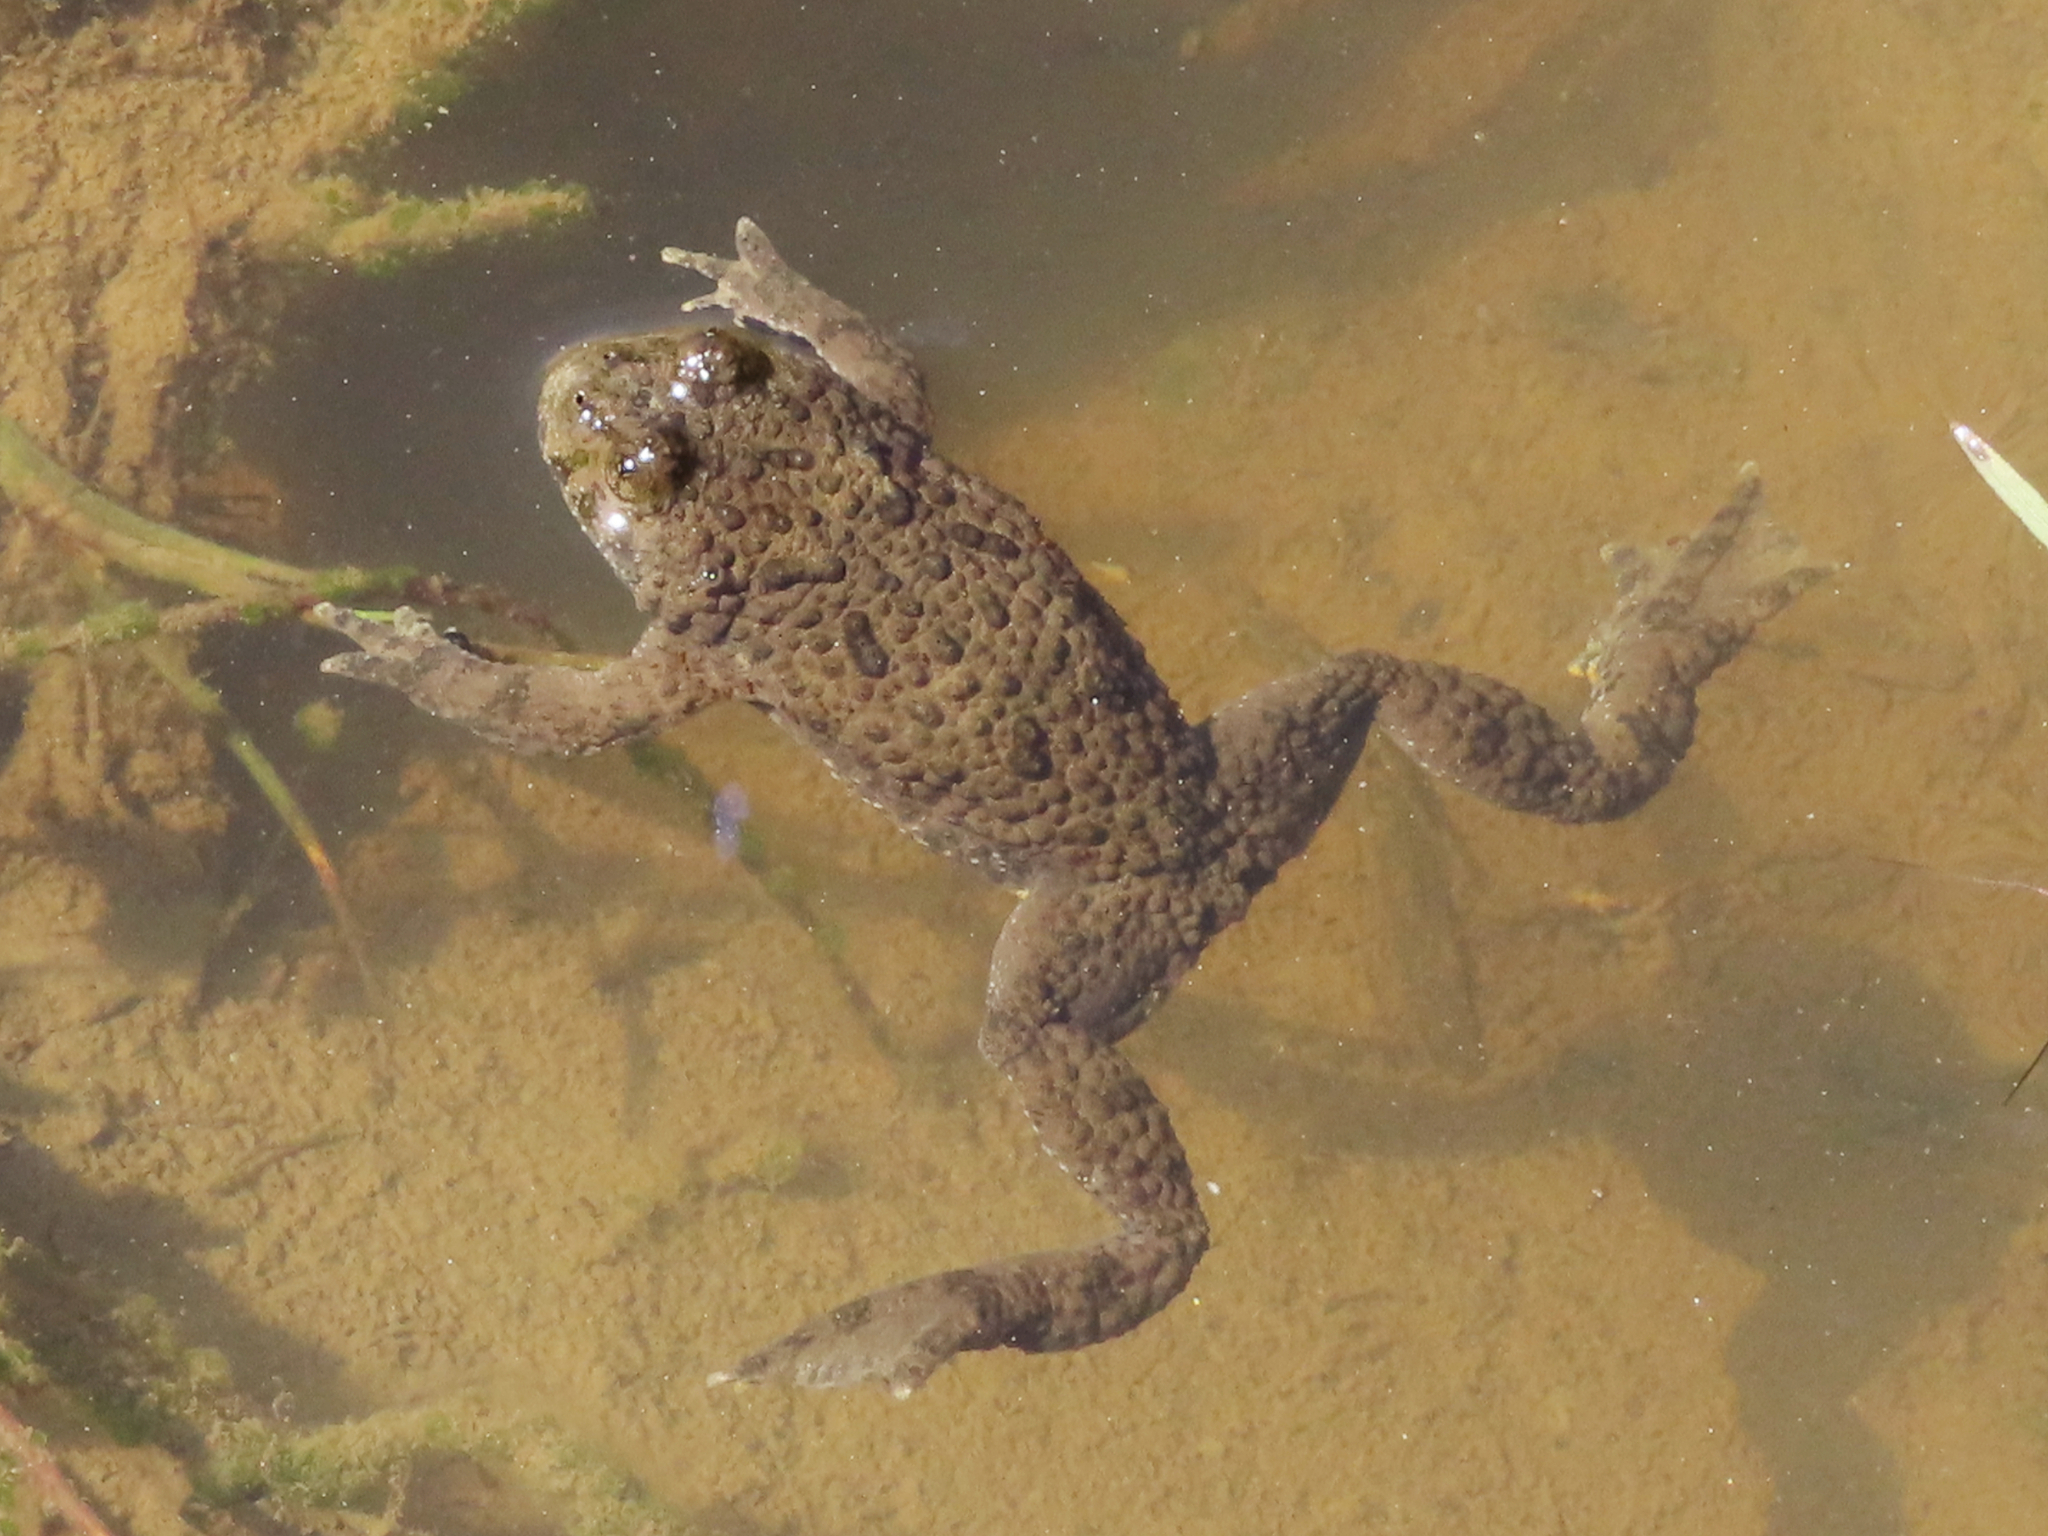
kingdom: Animalia
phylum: Chordata
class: Amphibia
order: Anura
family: Bombinatoridae
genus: Bombina
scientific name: Bombina variegata
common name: Yellow-bellied toad
